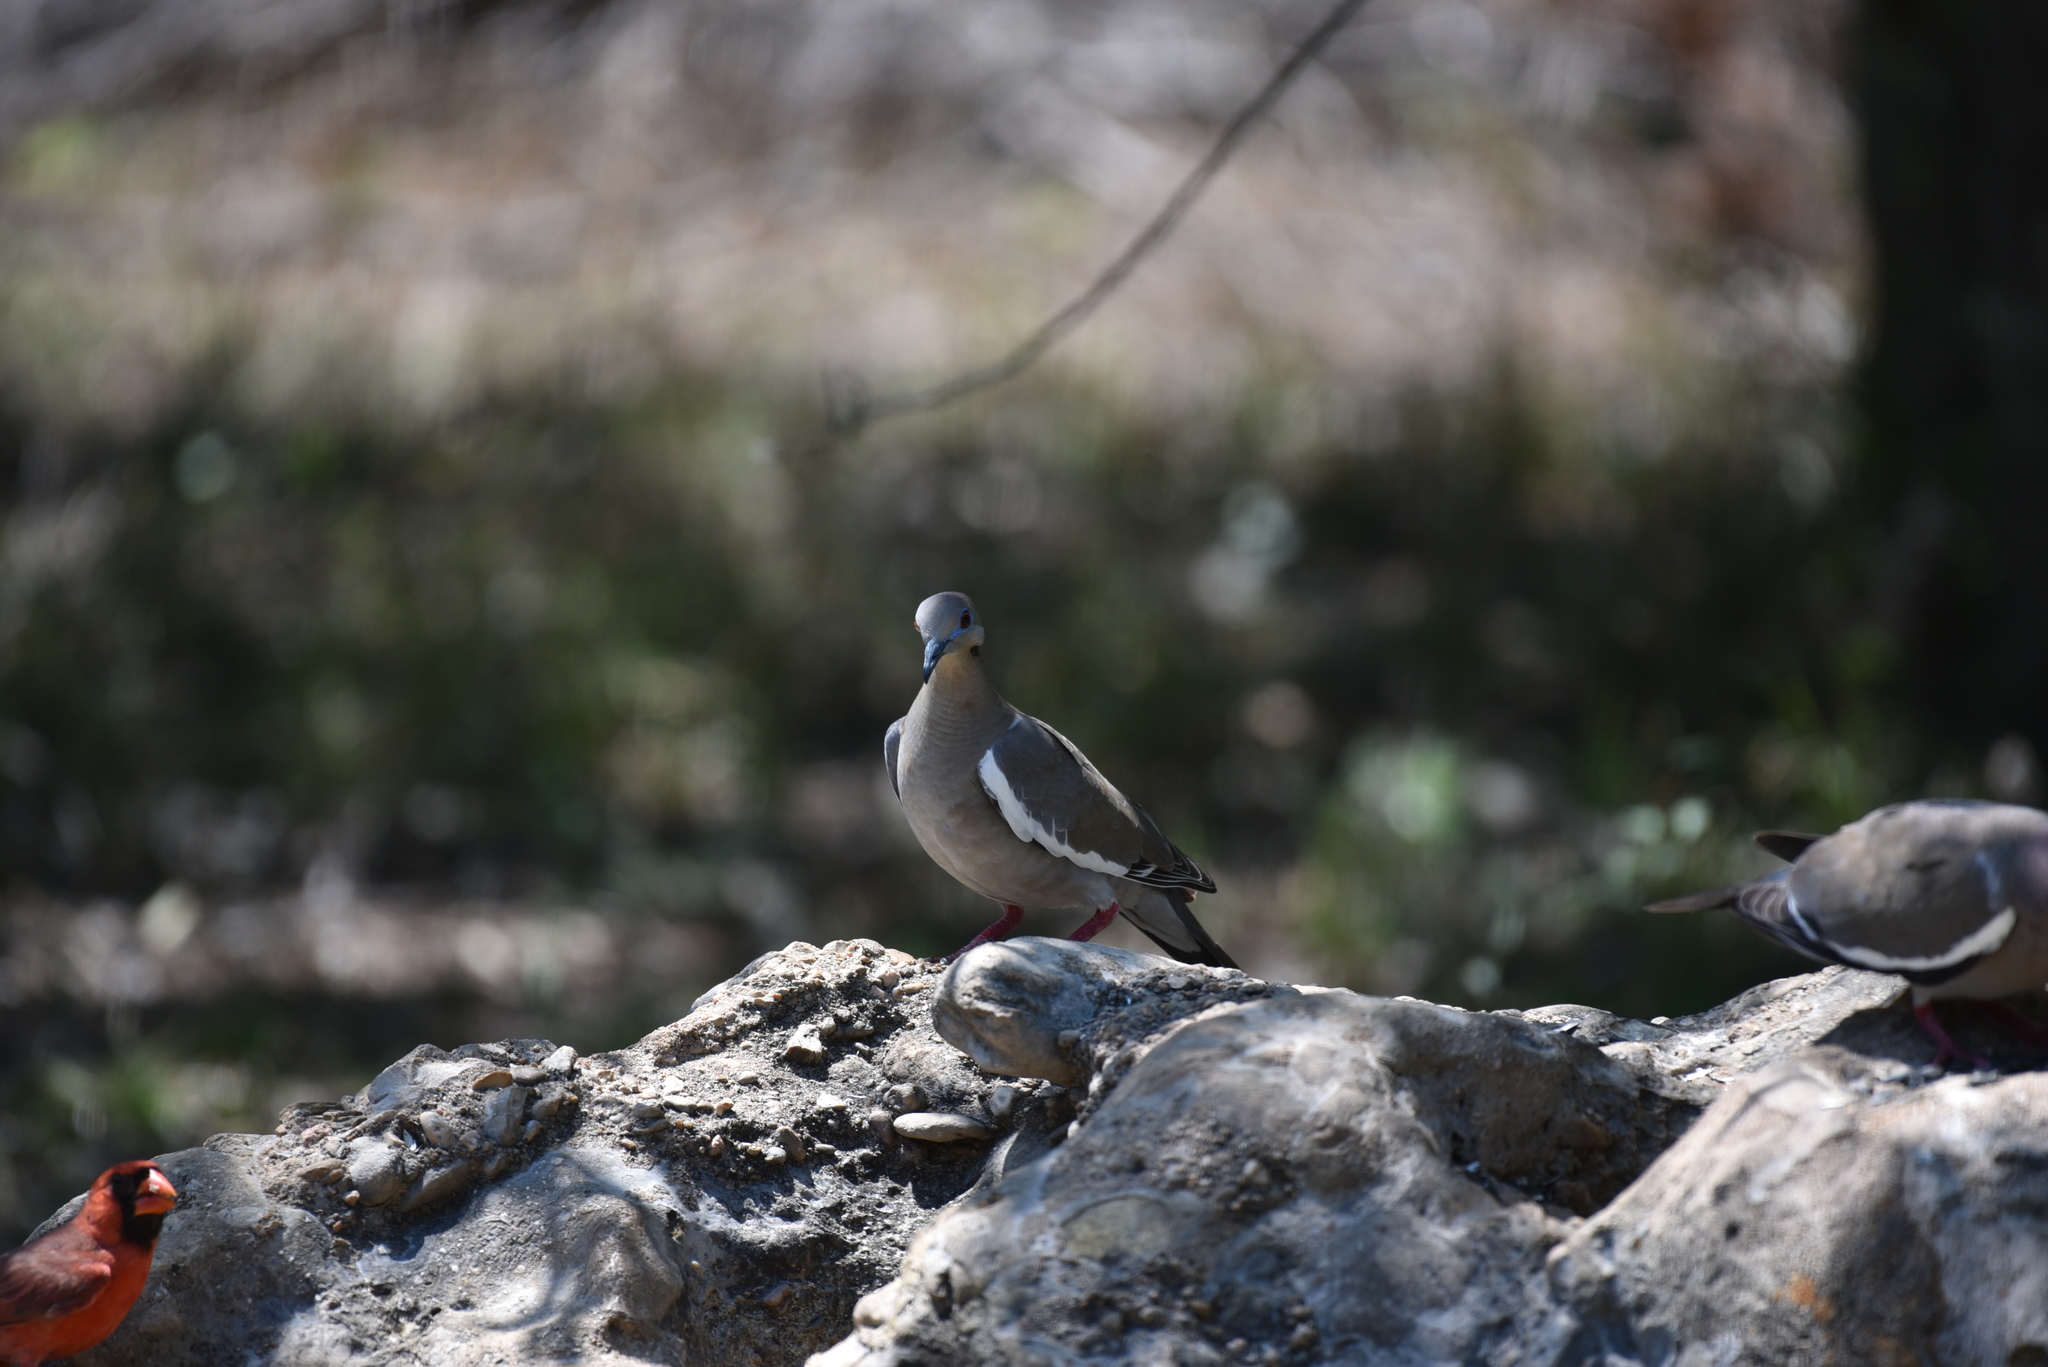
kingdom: Animalia
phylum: Chordata
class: Aves
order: Columbiformes
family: Columbidae
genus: Zenaida
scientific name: Zenaida asiatica
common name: White-winged dove
